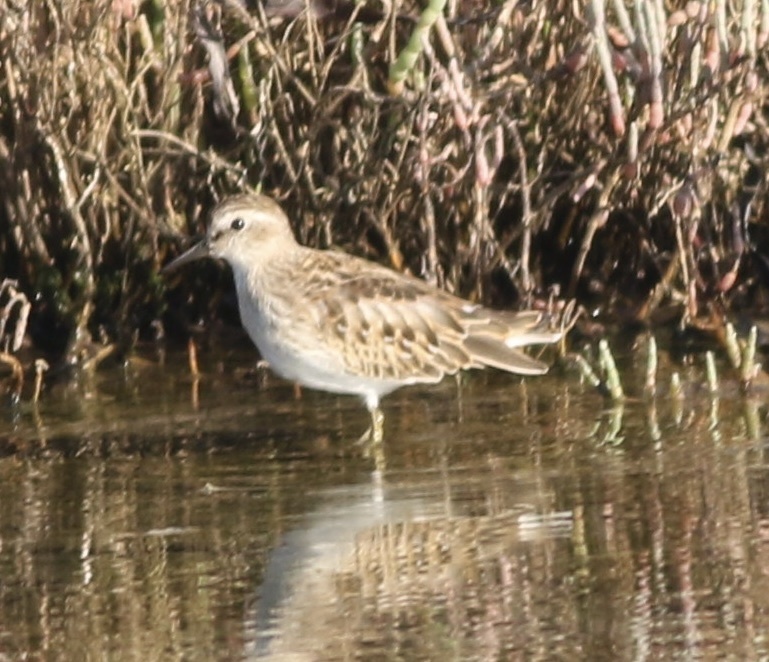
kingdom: Animalia
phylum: Chordata
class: Aves
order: Charadriiformes
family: Scolopacidae
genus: Calidris
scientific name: Calidris minutilla
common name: Least sandpiper
